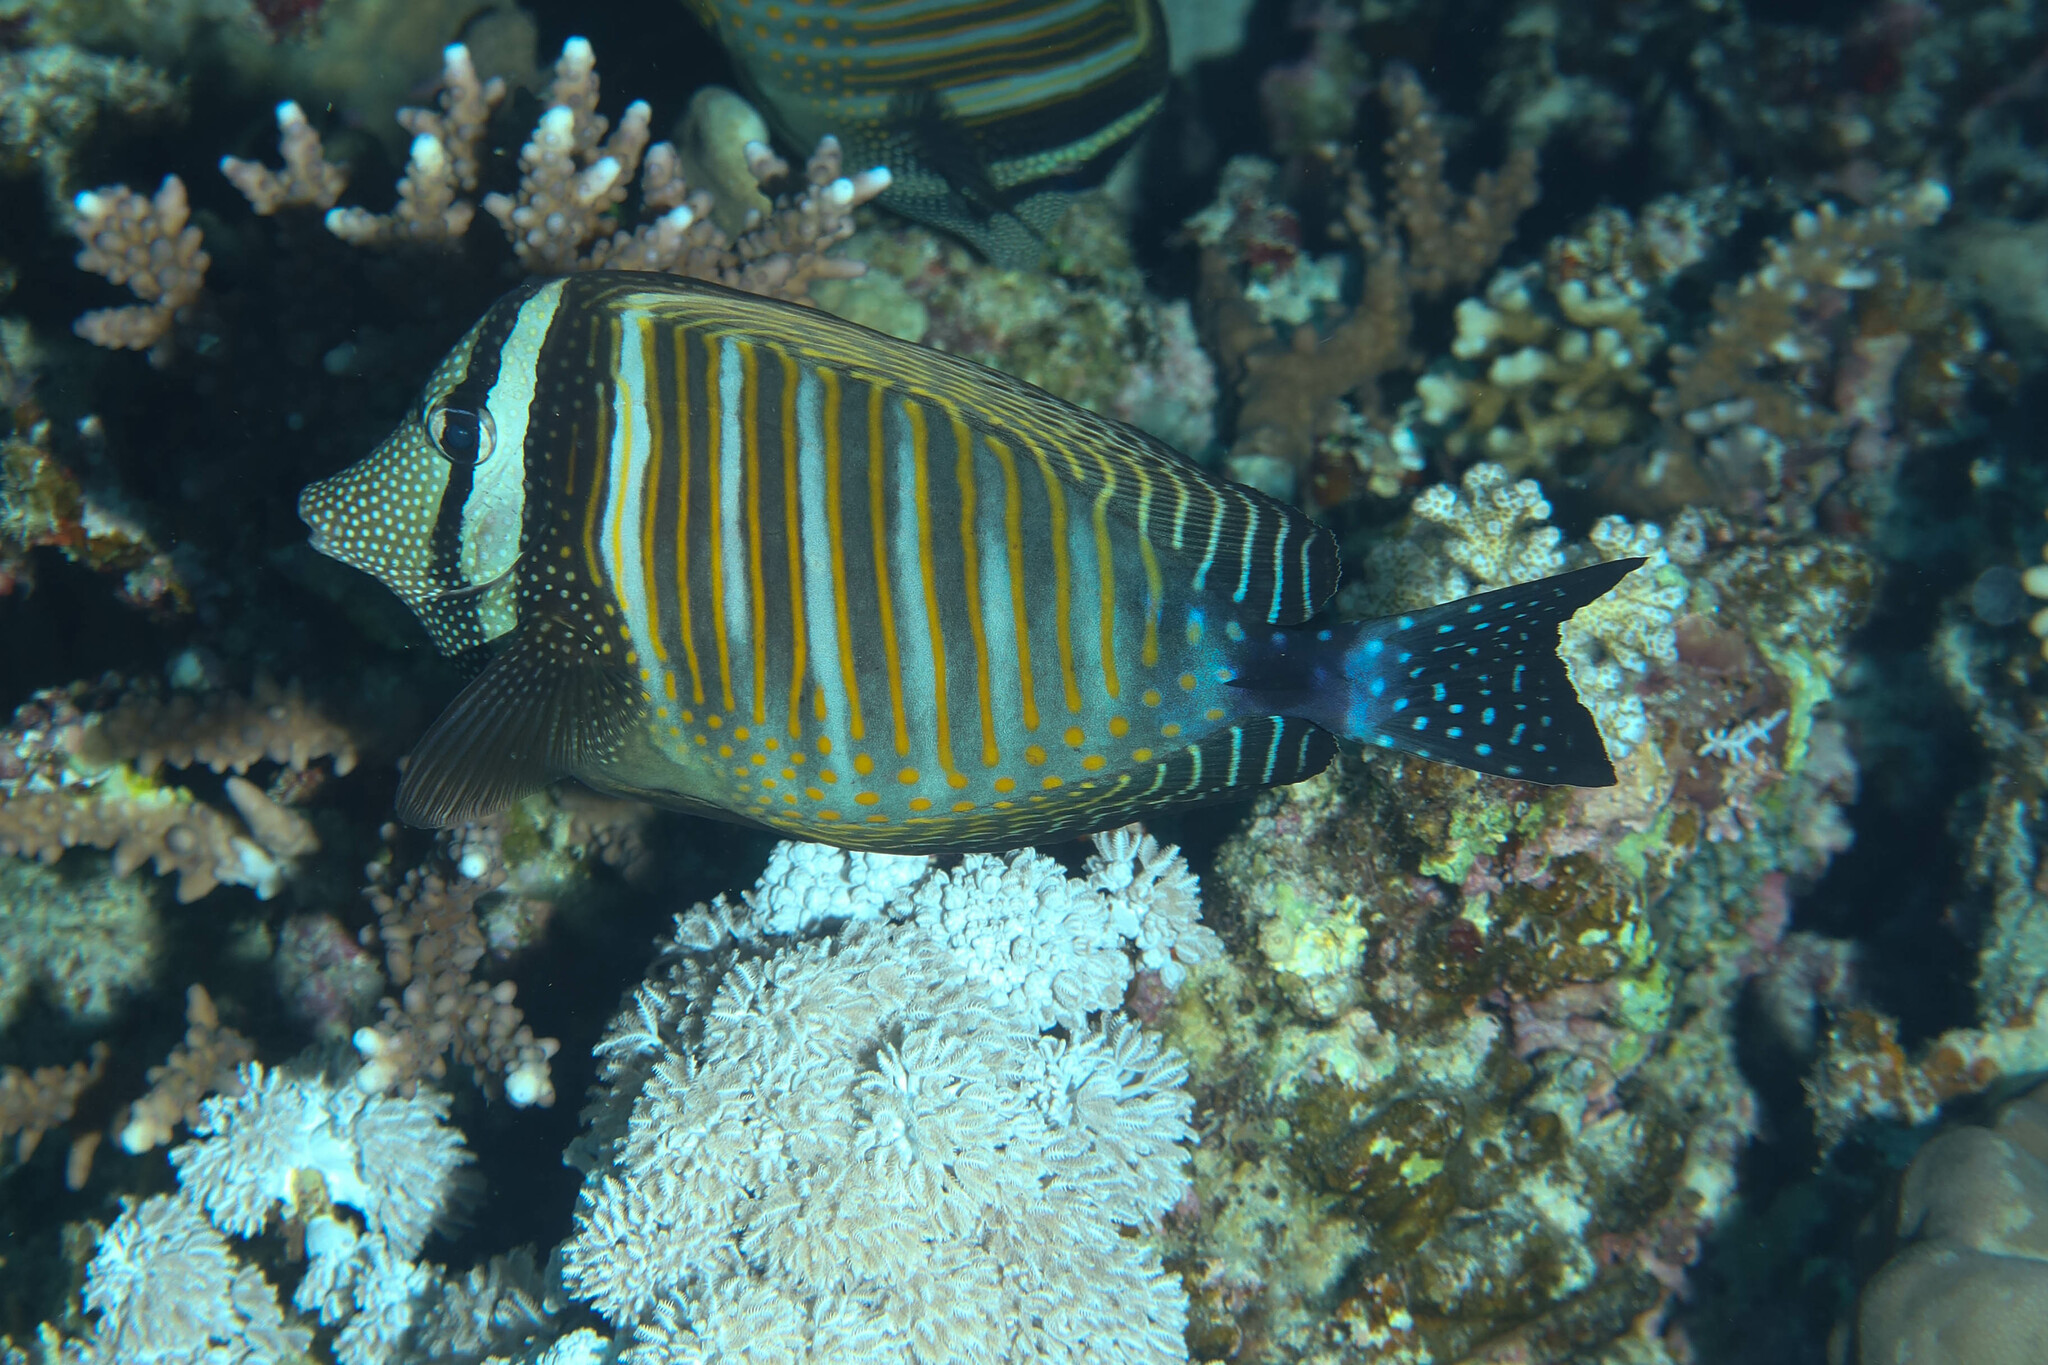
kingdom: Animalia
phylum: Chordata
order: Perciformes
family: Acanthuridae
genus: Zebrasoma
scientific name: Zebrasoma desjardinii
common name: Desjardin's sailfin tang
